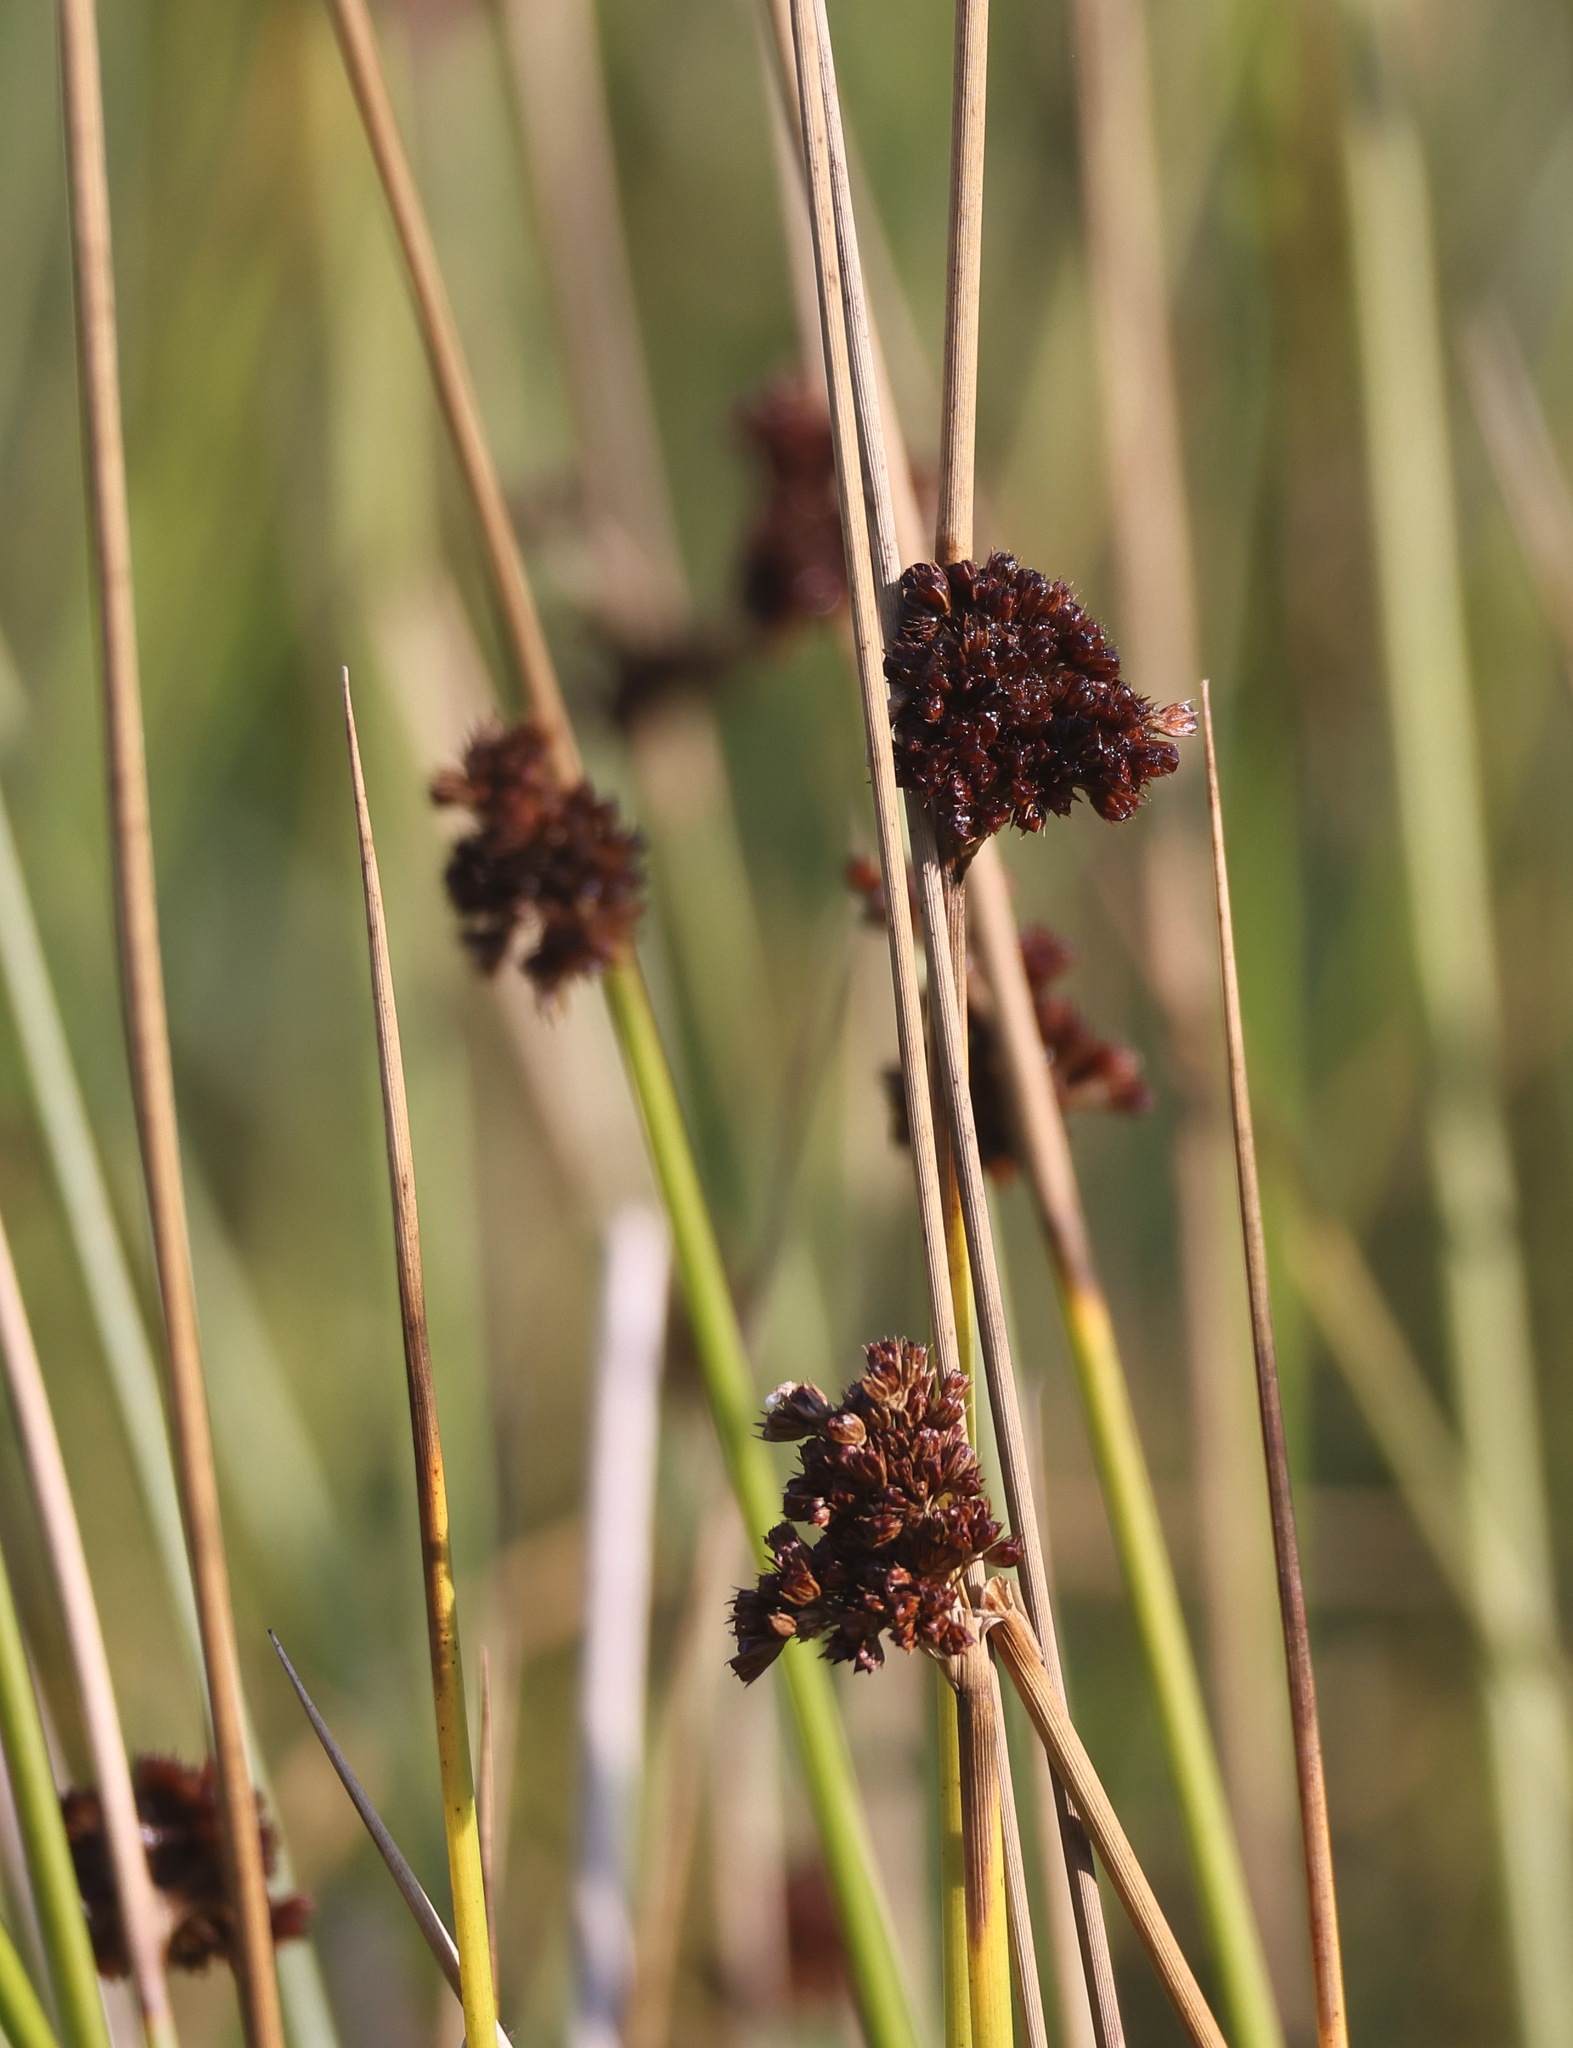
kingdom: Plantae
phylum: Tracheophyta
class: Liliopsida
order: Poales
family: Juncaceae
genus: Juncus
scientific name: Juncus conglomeratus
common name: Compact rush
